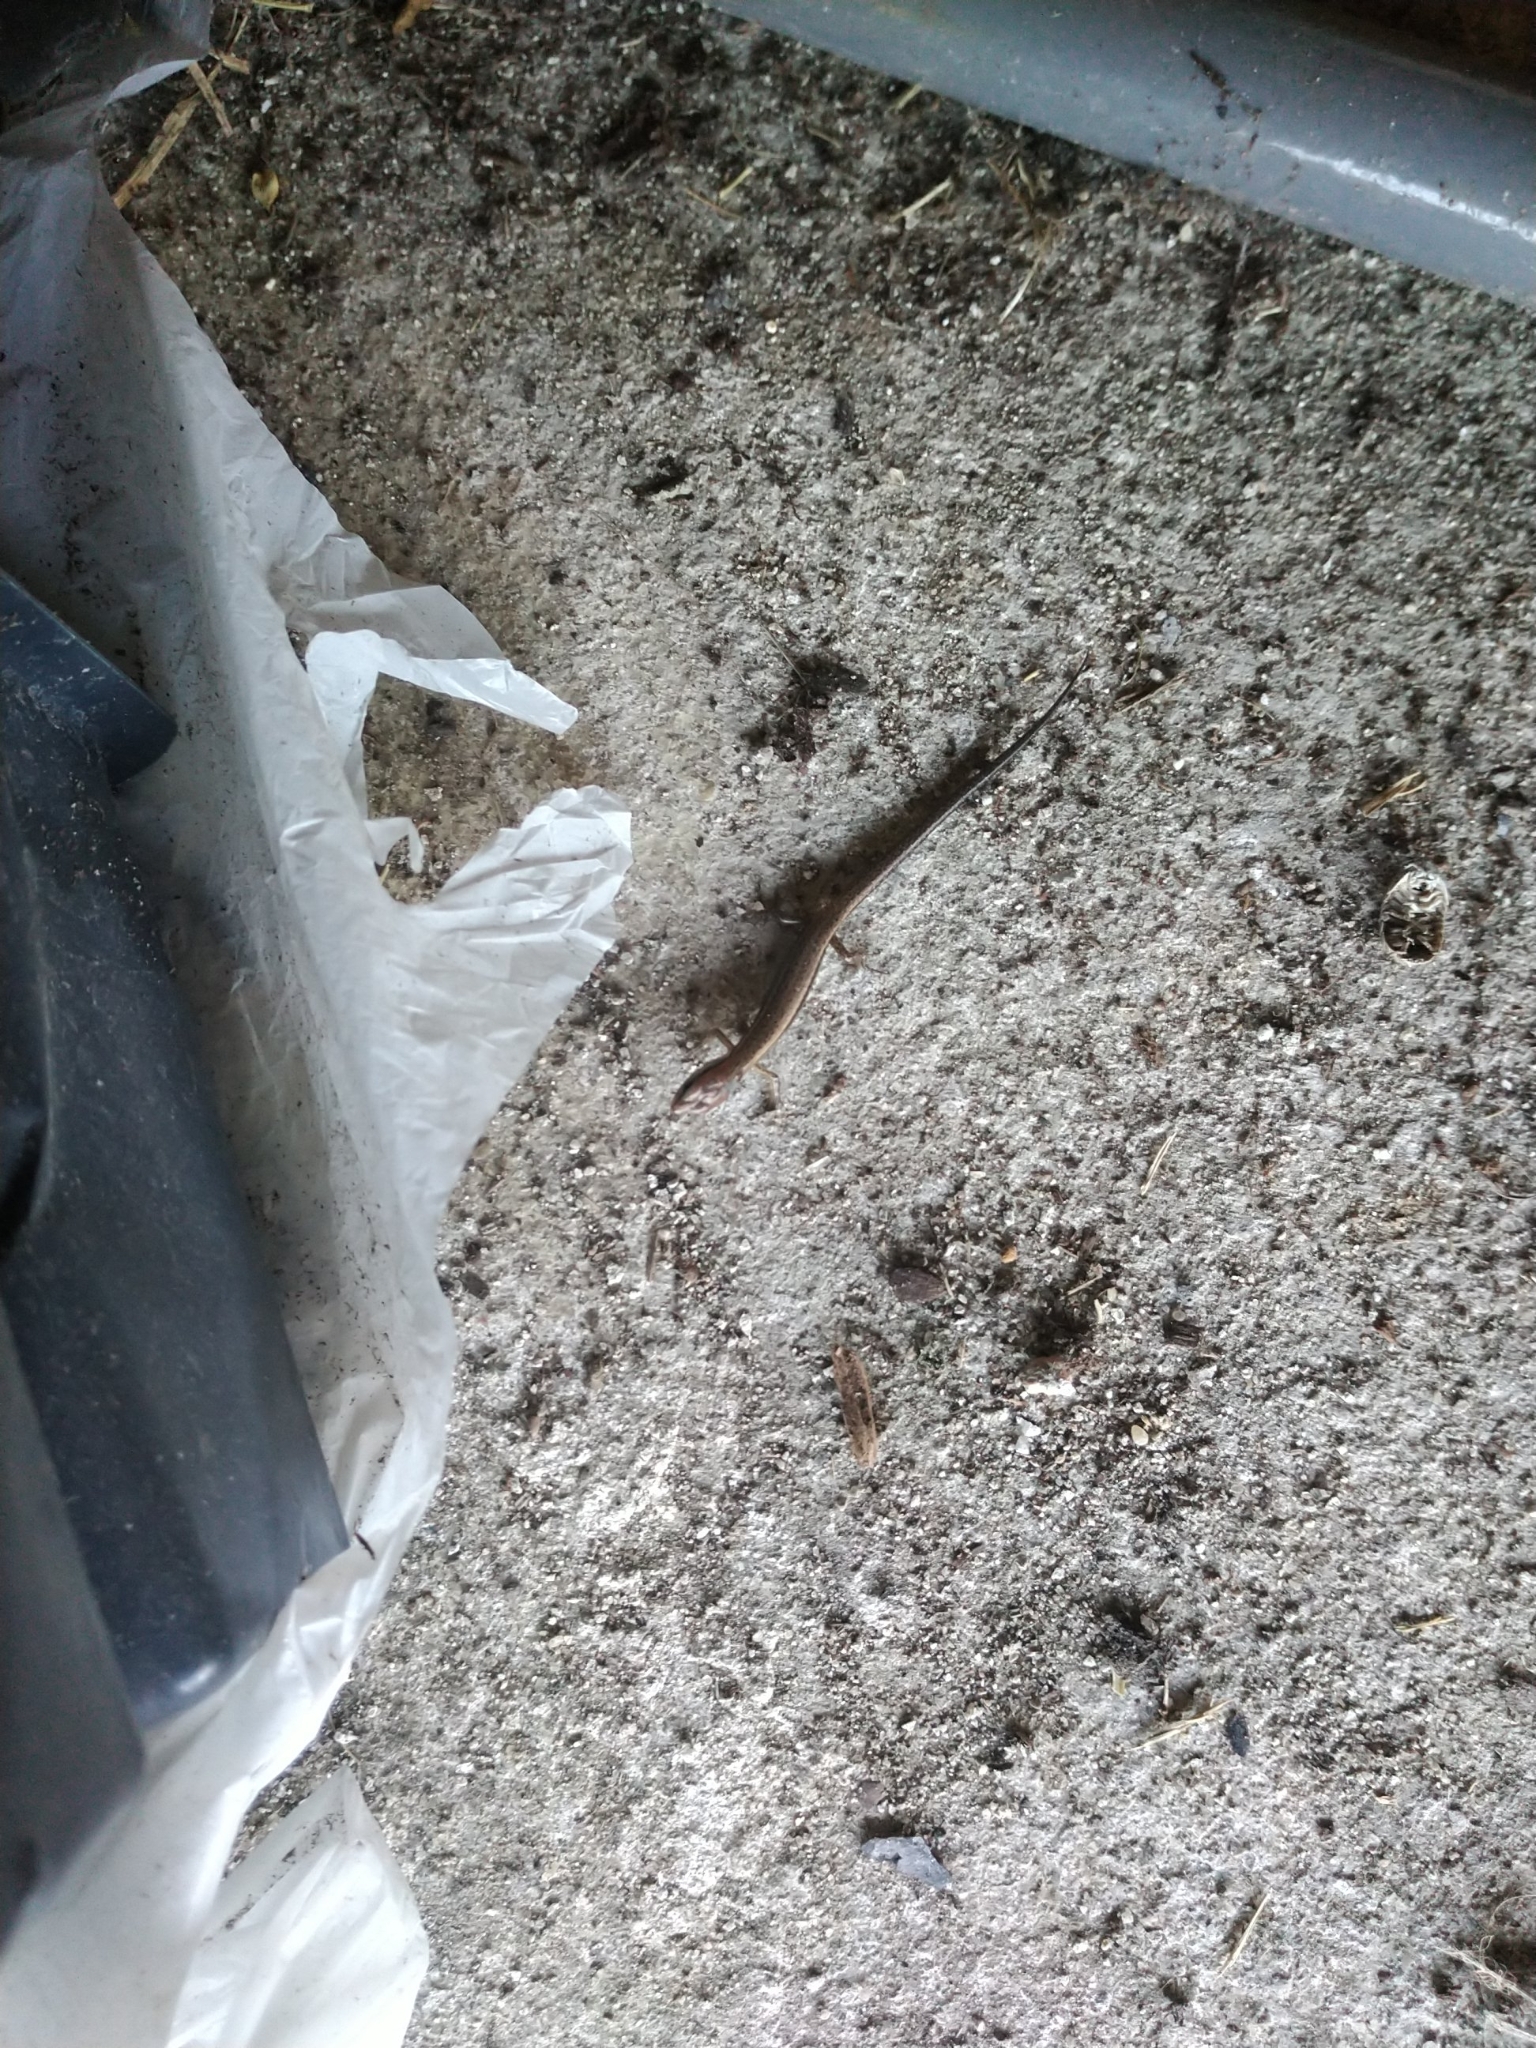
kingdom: Animalia
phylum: Chordata
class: Squamata
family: Scincidae
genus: Scincella
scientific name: Scincella lateralis
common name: Ground skink
